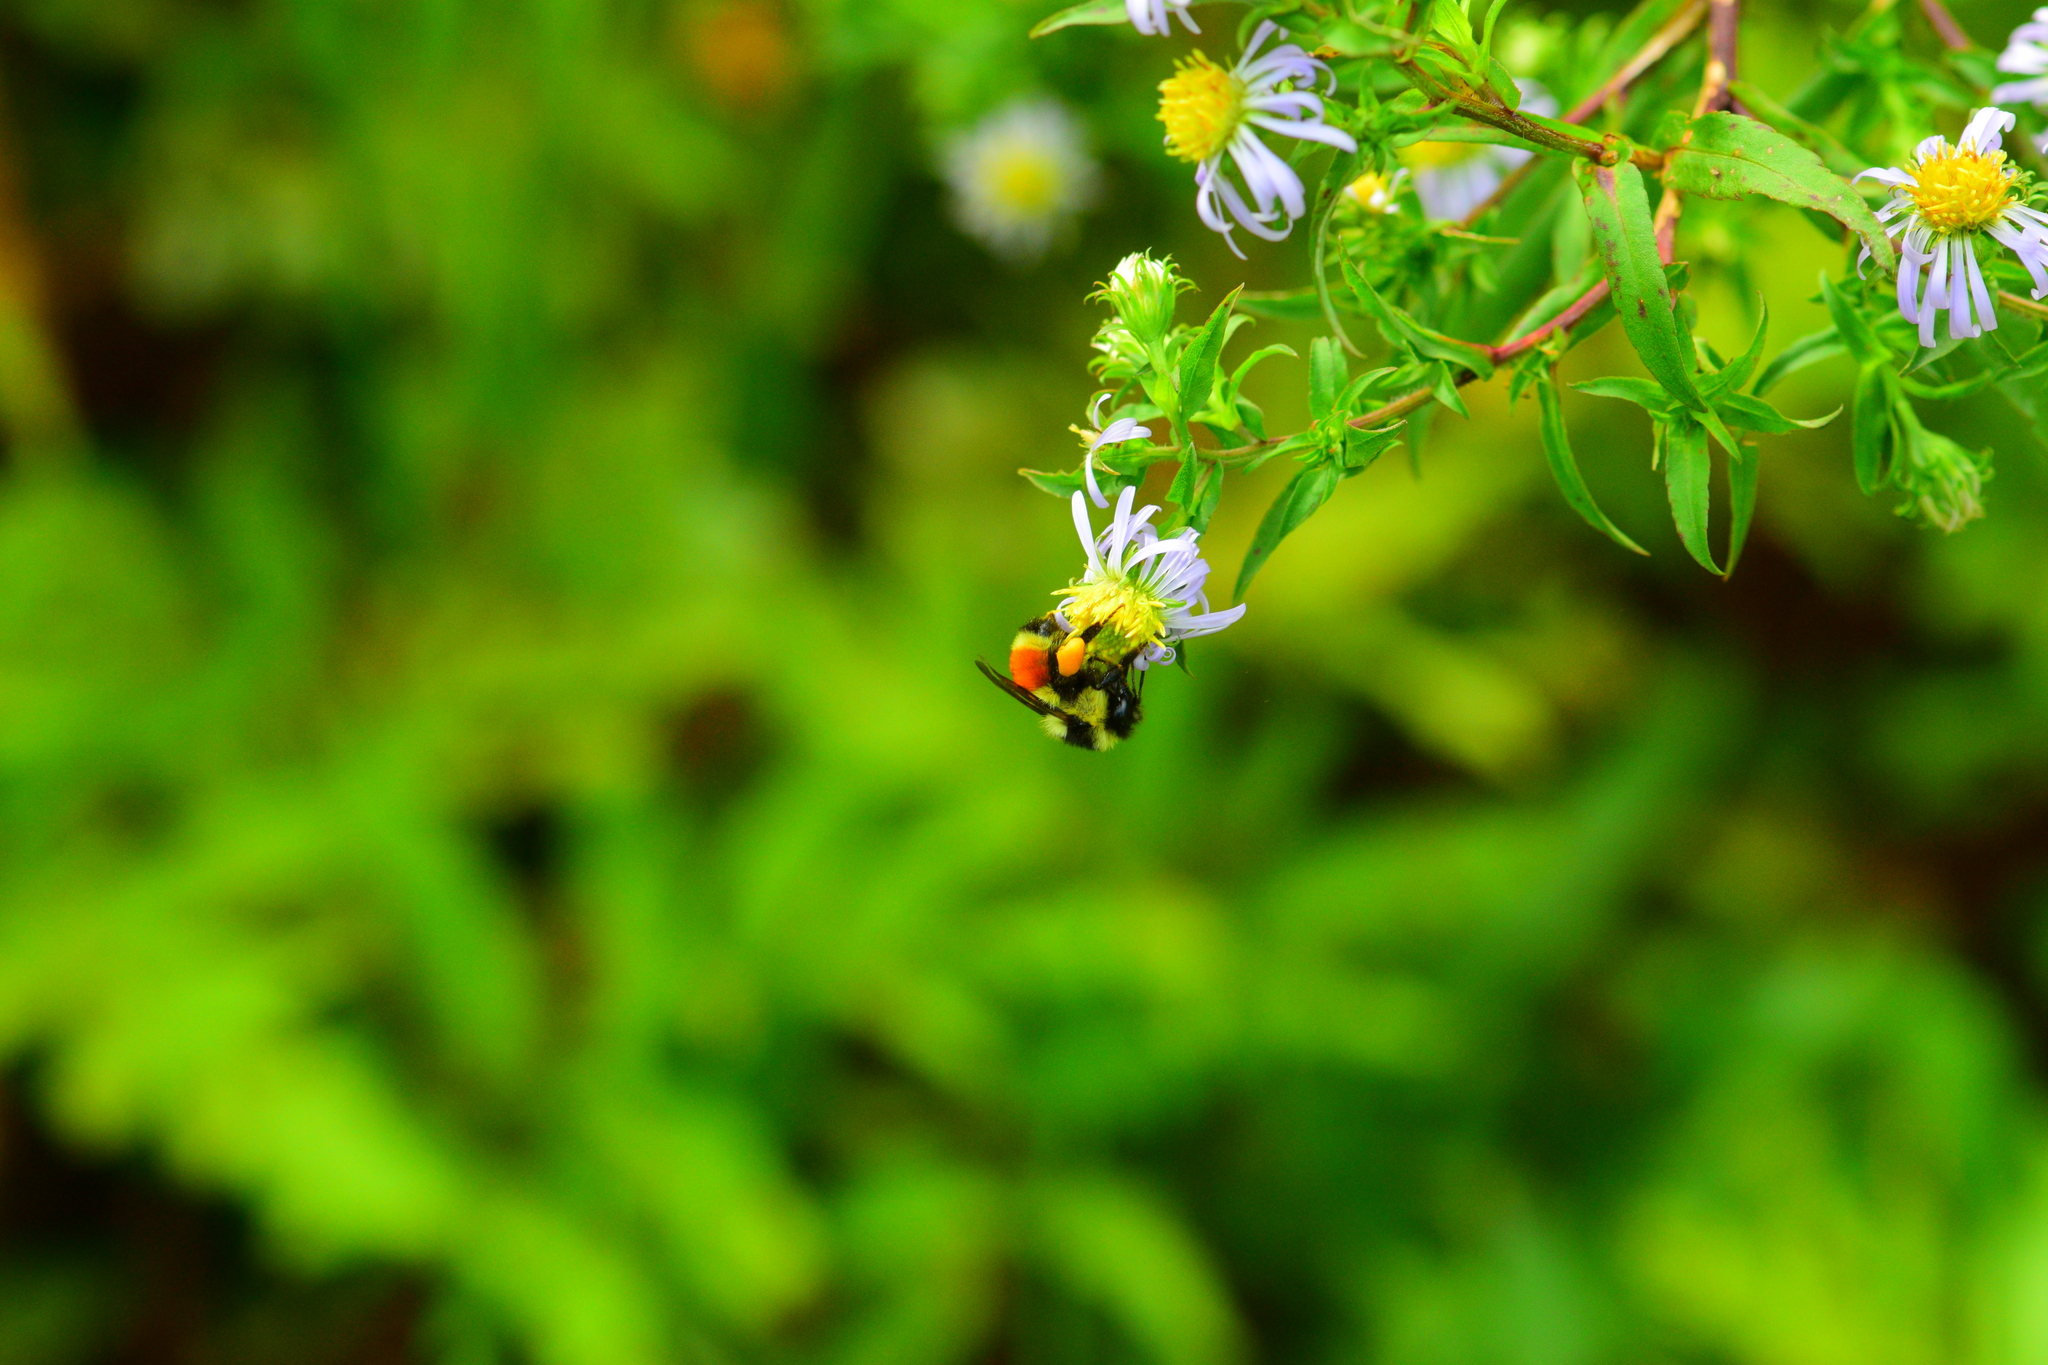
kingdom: Animalia
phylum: Arthropoda
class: Insecta
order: Hymenoptera
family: Apidae
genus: Bombus
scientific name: Bombus ternarius
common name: Tri-colored bumble bee
